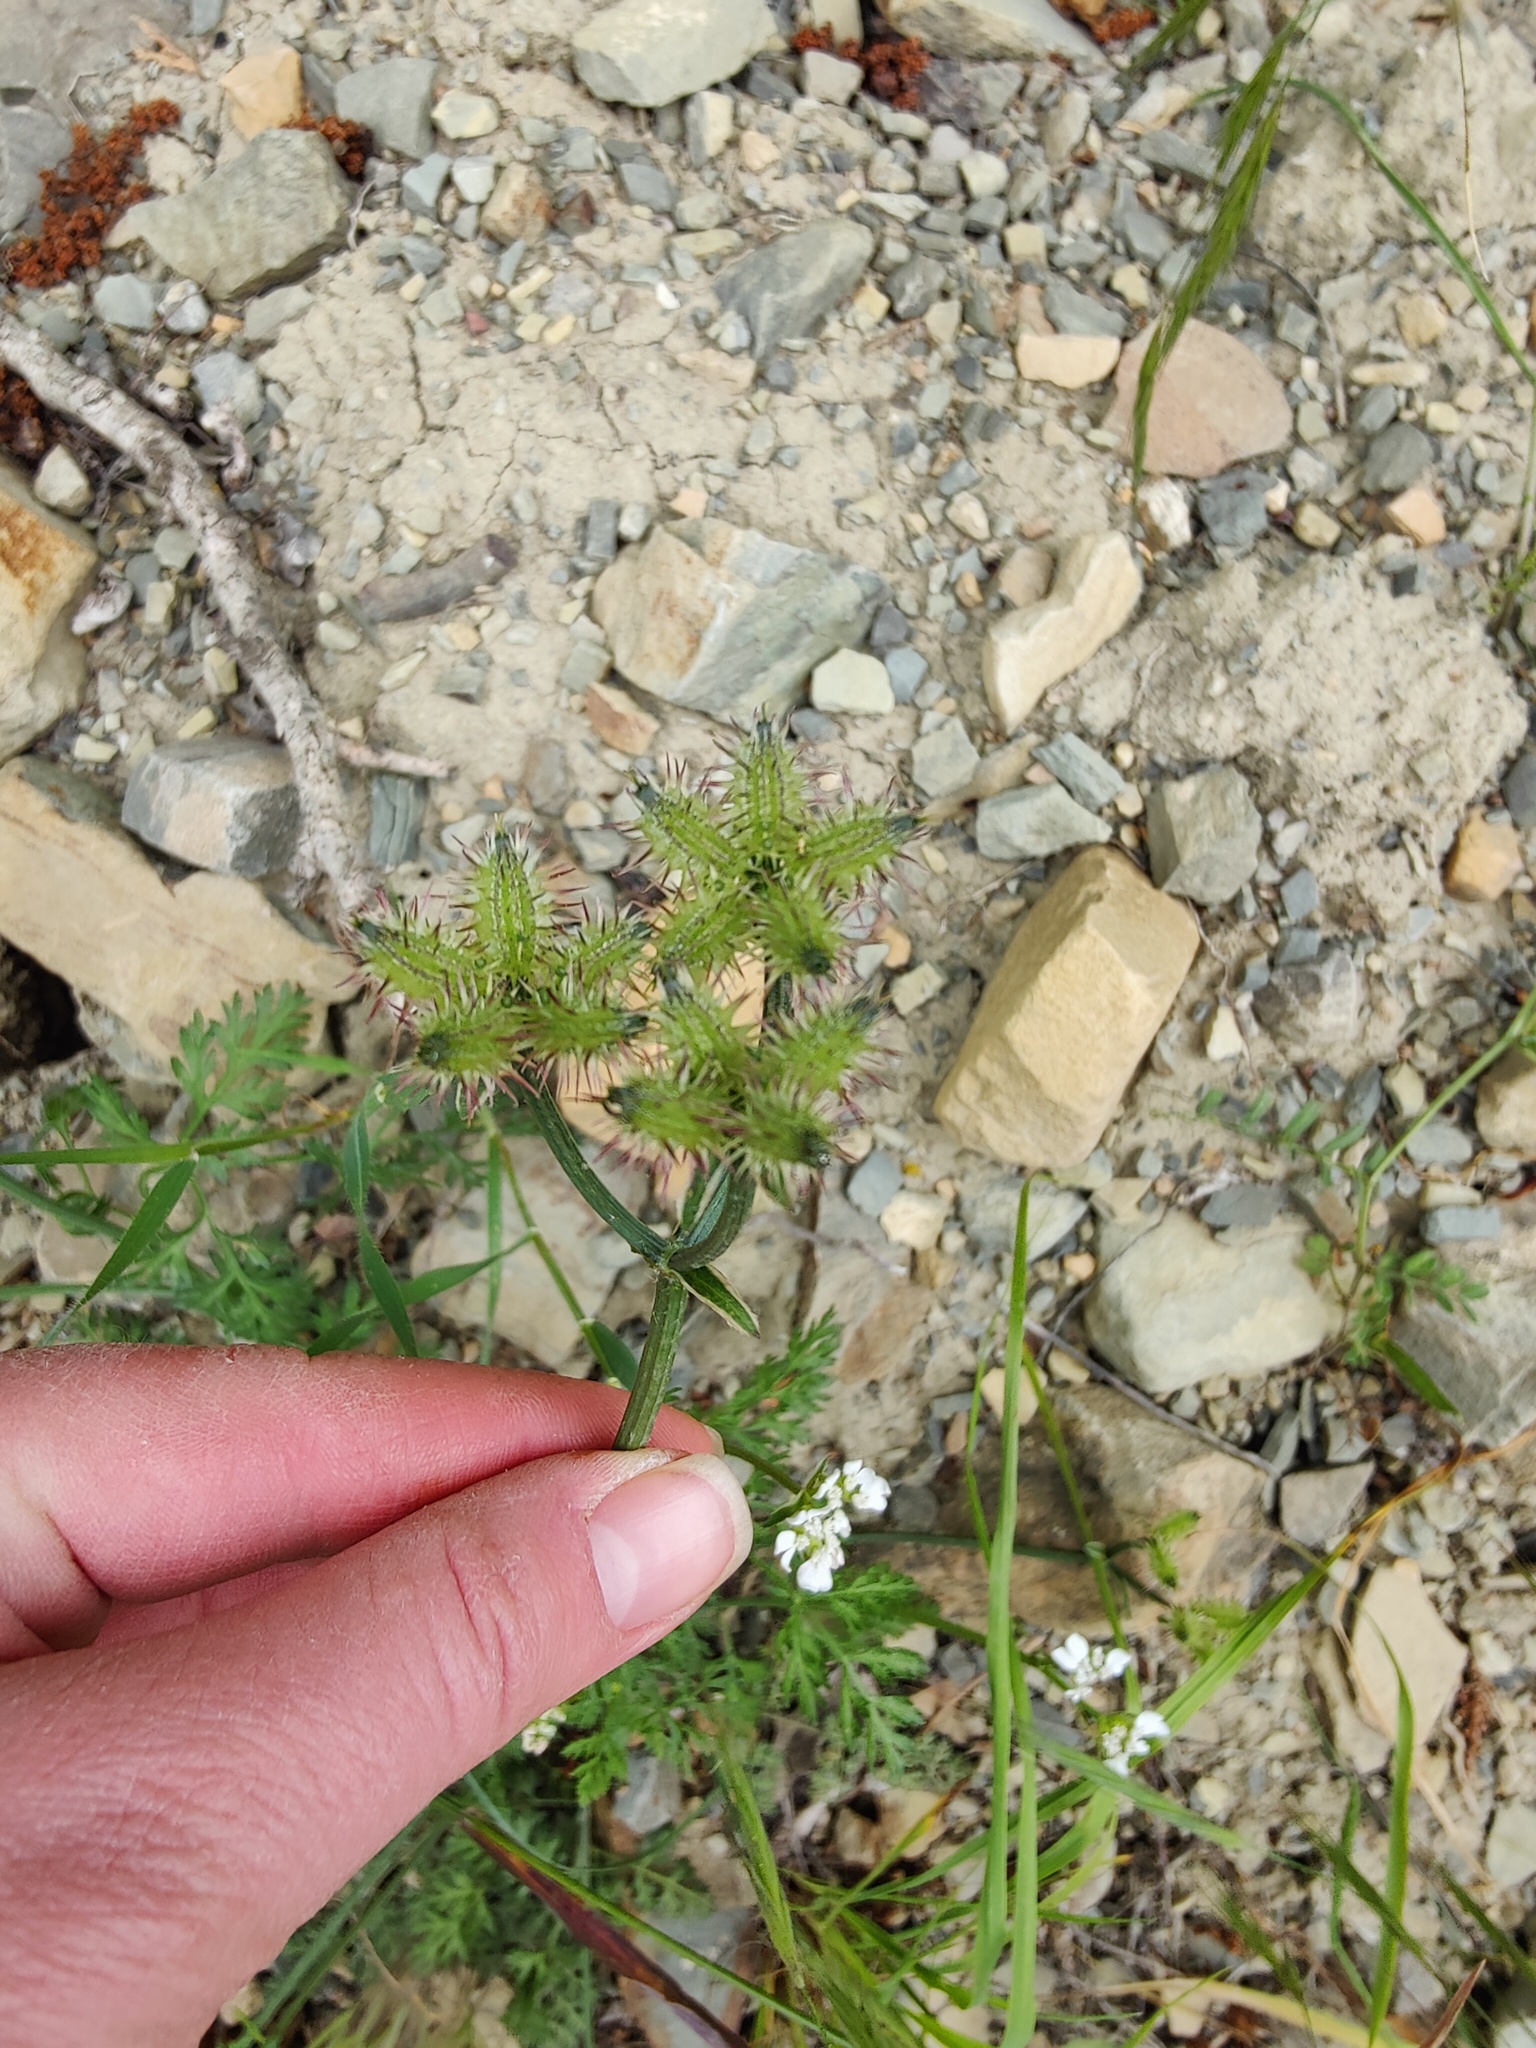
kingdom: Plantae
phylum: Tracheophyta
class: Magnoliopsida
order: Apiales
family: Apiaceae
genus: Orlaya
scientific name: Orlaya daucoides
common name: Flat-fruit orlaya
